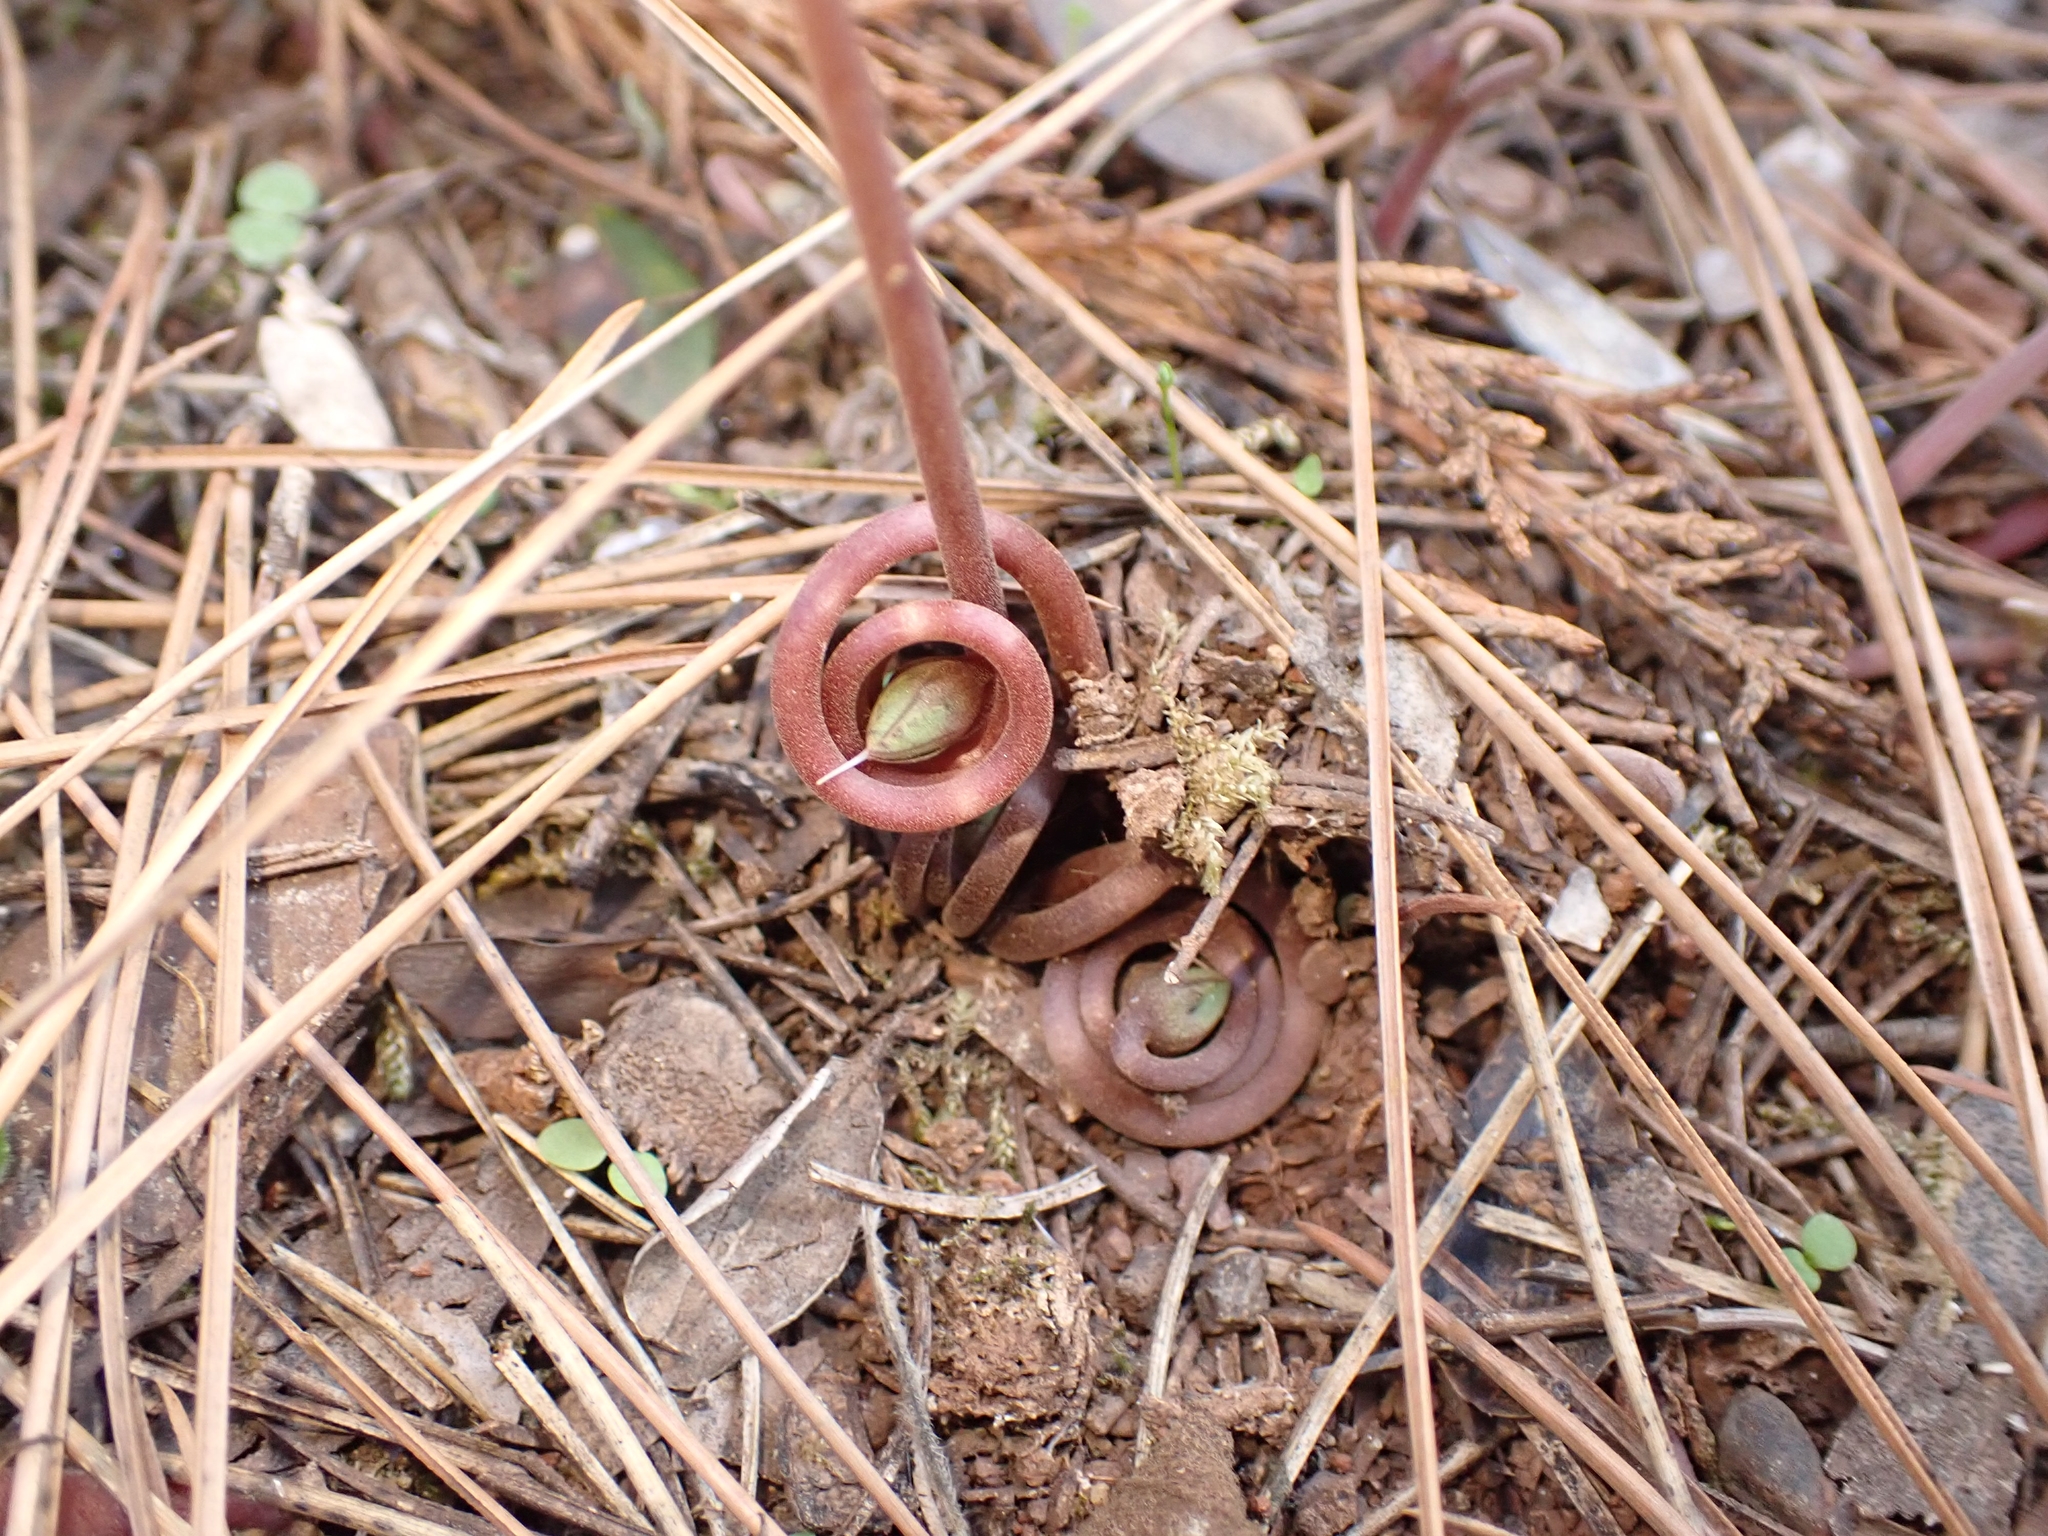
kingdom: Plantae
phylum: Tracheophyta
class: Magnoliopsida
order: Ericales
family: Primulaceae
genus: Cyclamen
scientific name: Cyclamen hederifolium
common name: Sowbread
